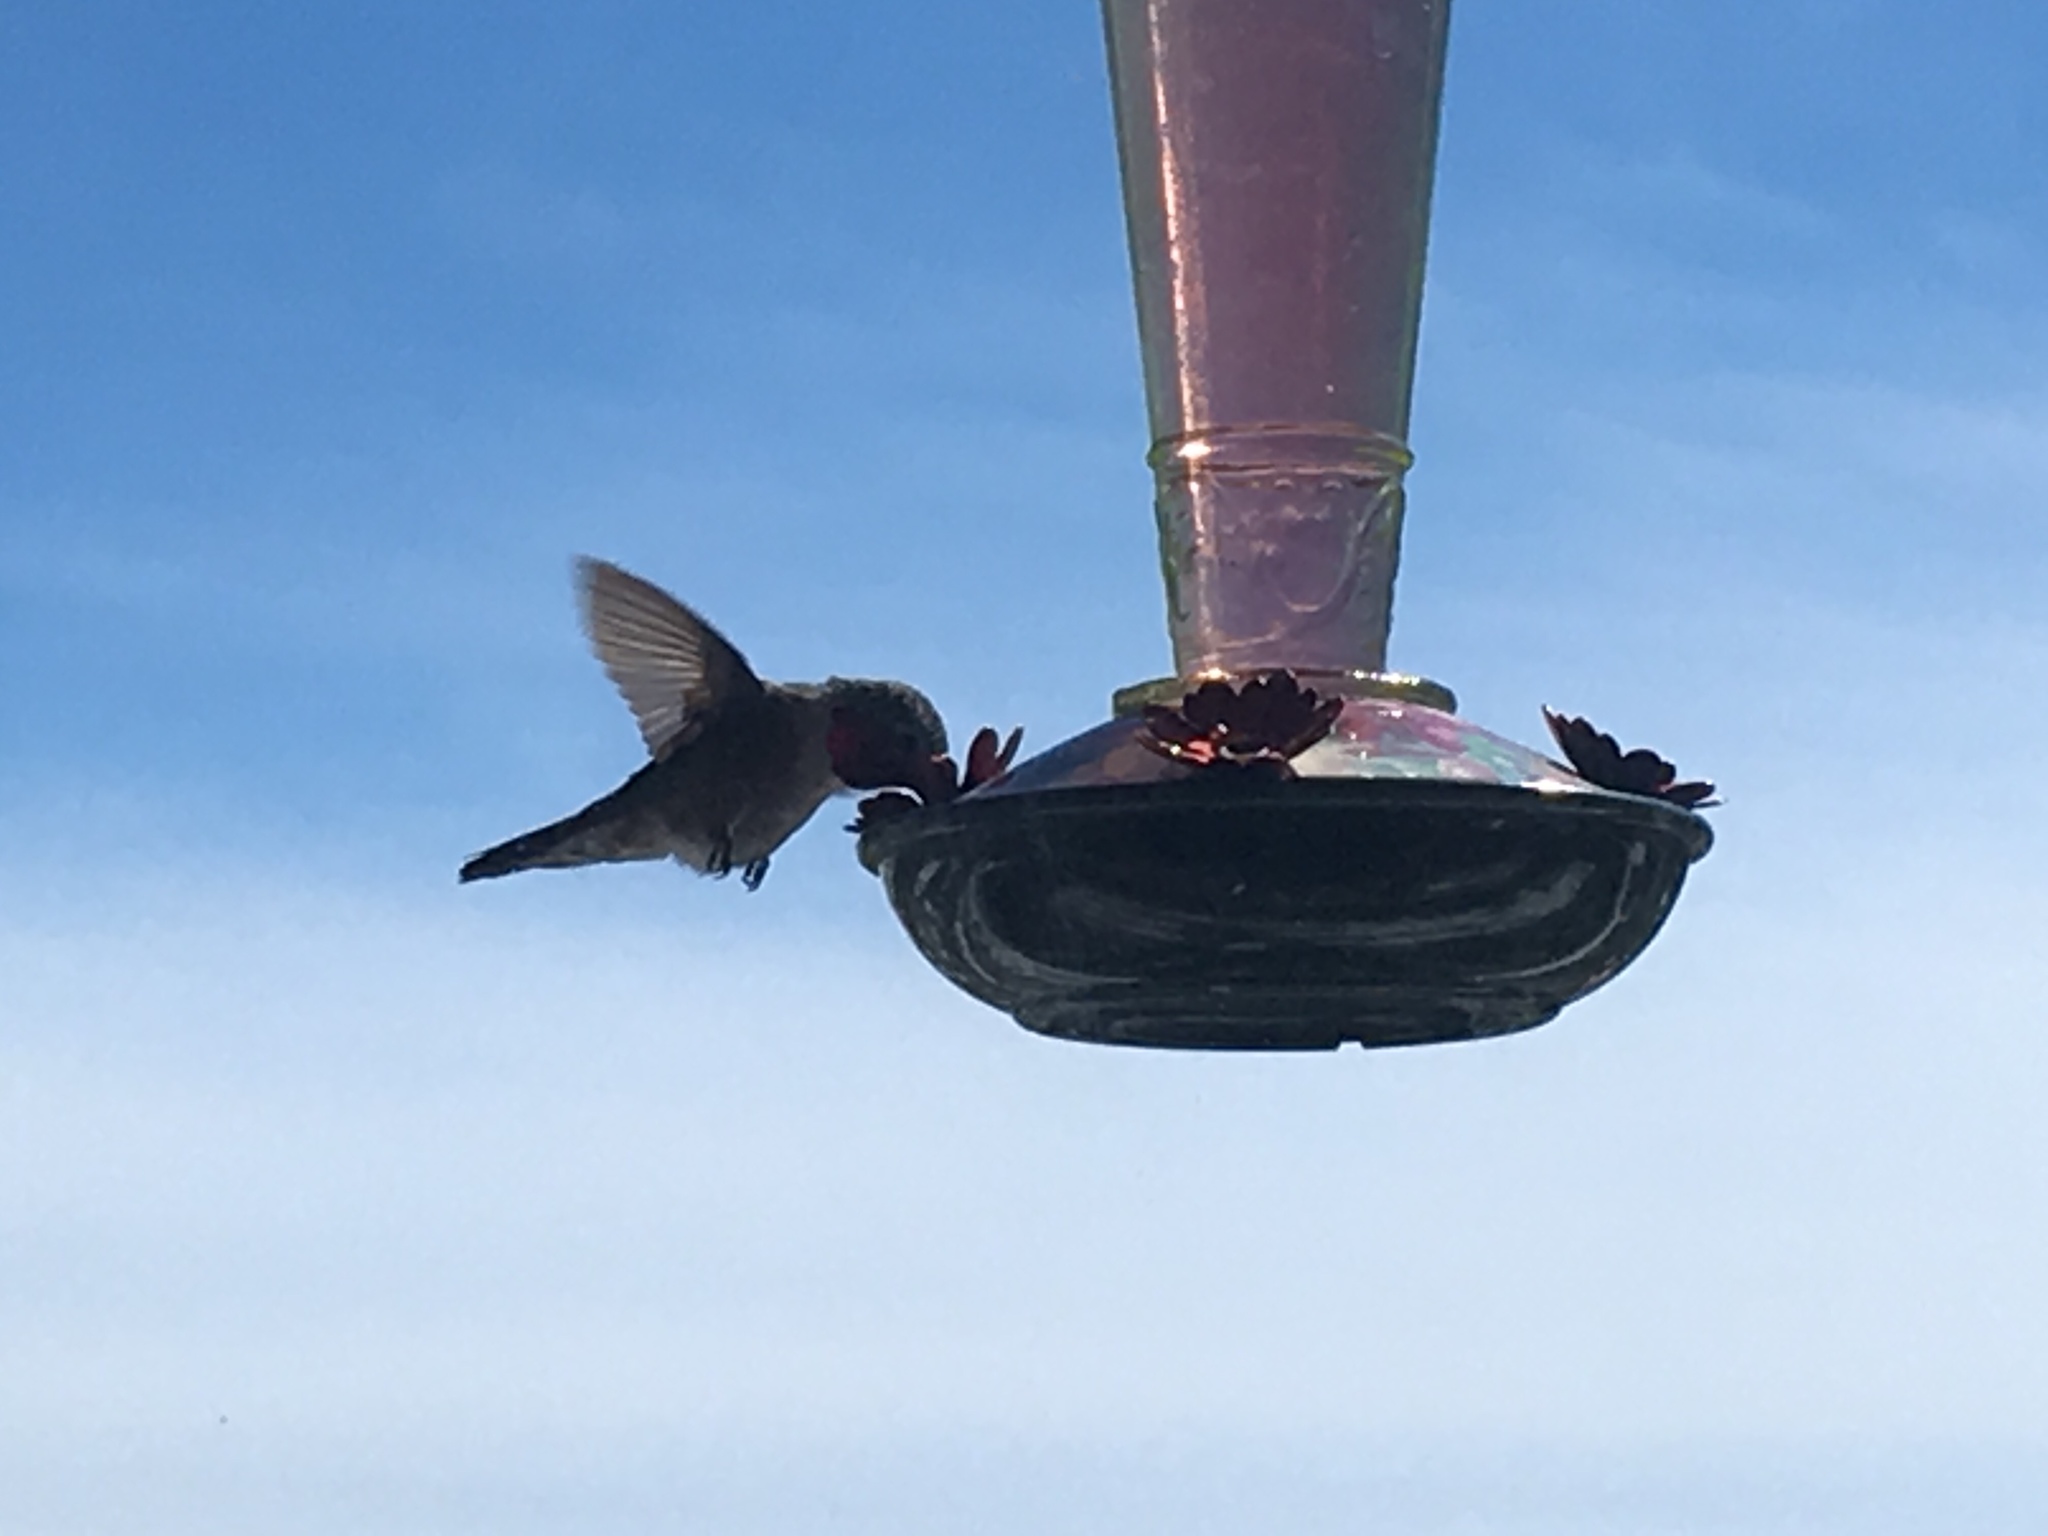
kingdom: Animalia
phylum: Chordata
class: Aves
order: Apodiformes
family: Trochilidae
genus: Selasphorus
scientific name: Selasphorus platycercus
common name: Broad-tailed hummingbird
